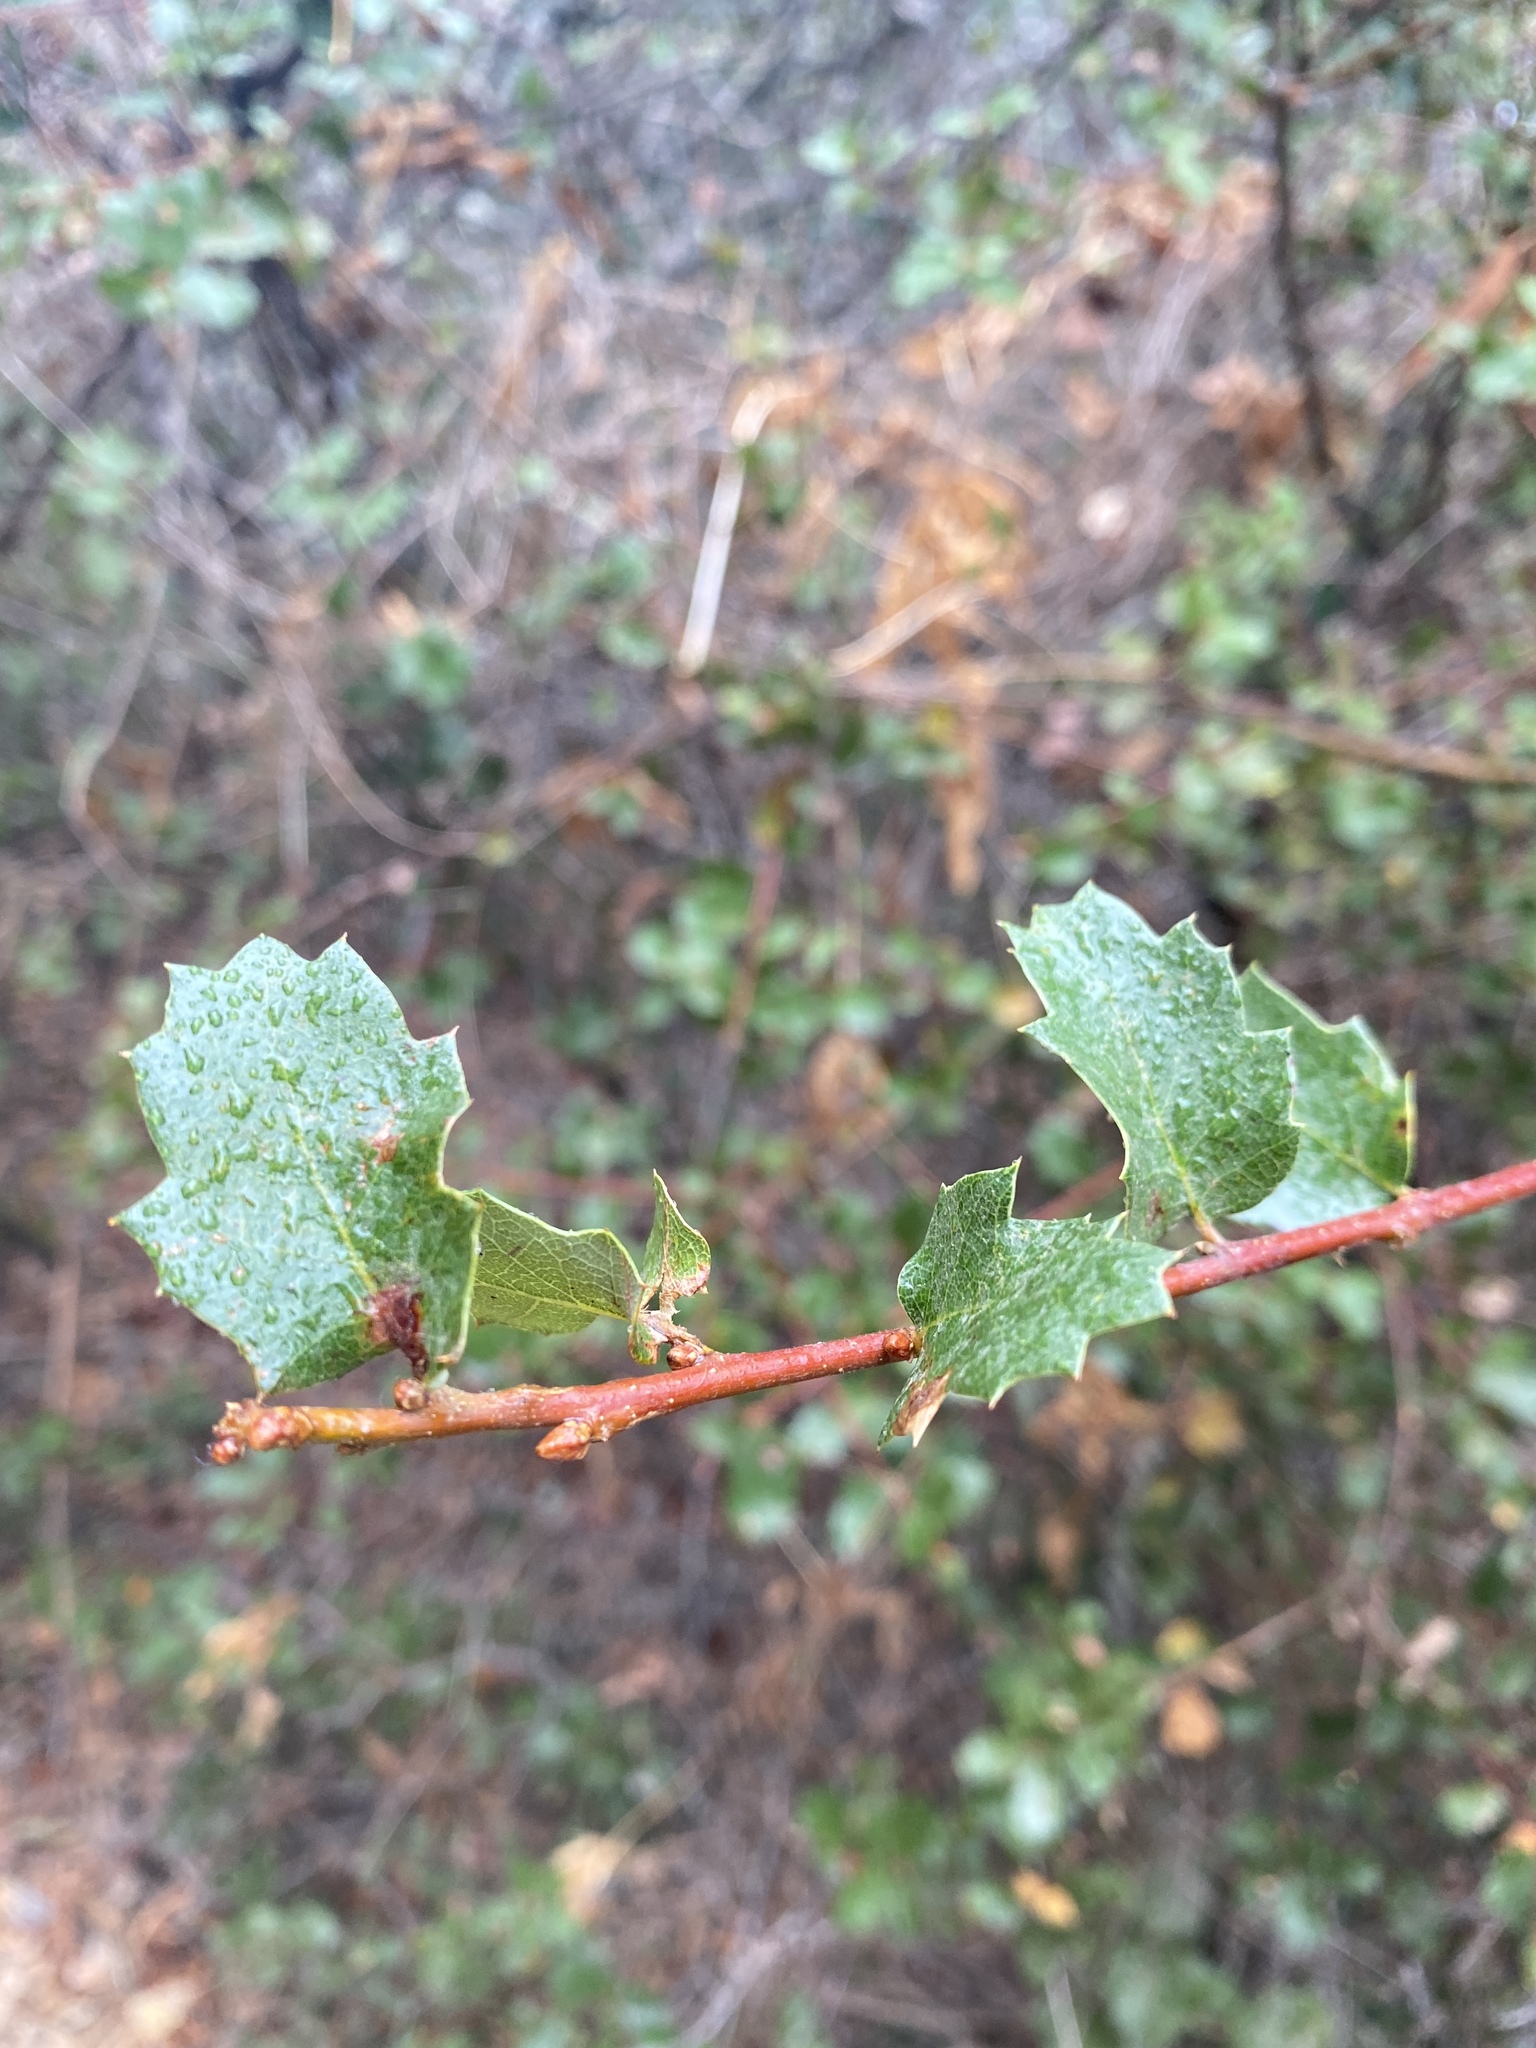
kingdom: Plantae
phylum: Tracheophyta
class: Magnoliopsida
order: Fagales
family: Fagaceae
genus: Quercus
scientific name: Quercus berberidifolia
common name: California scrub oak
